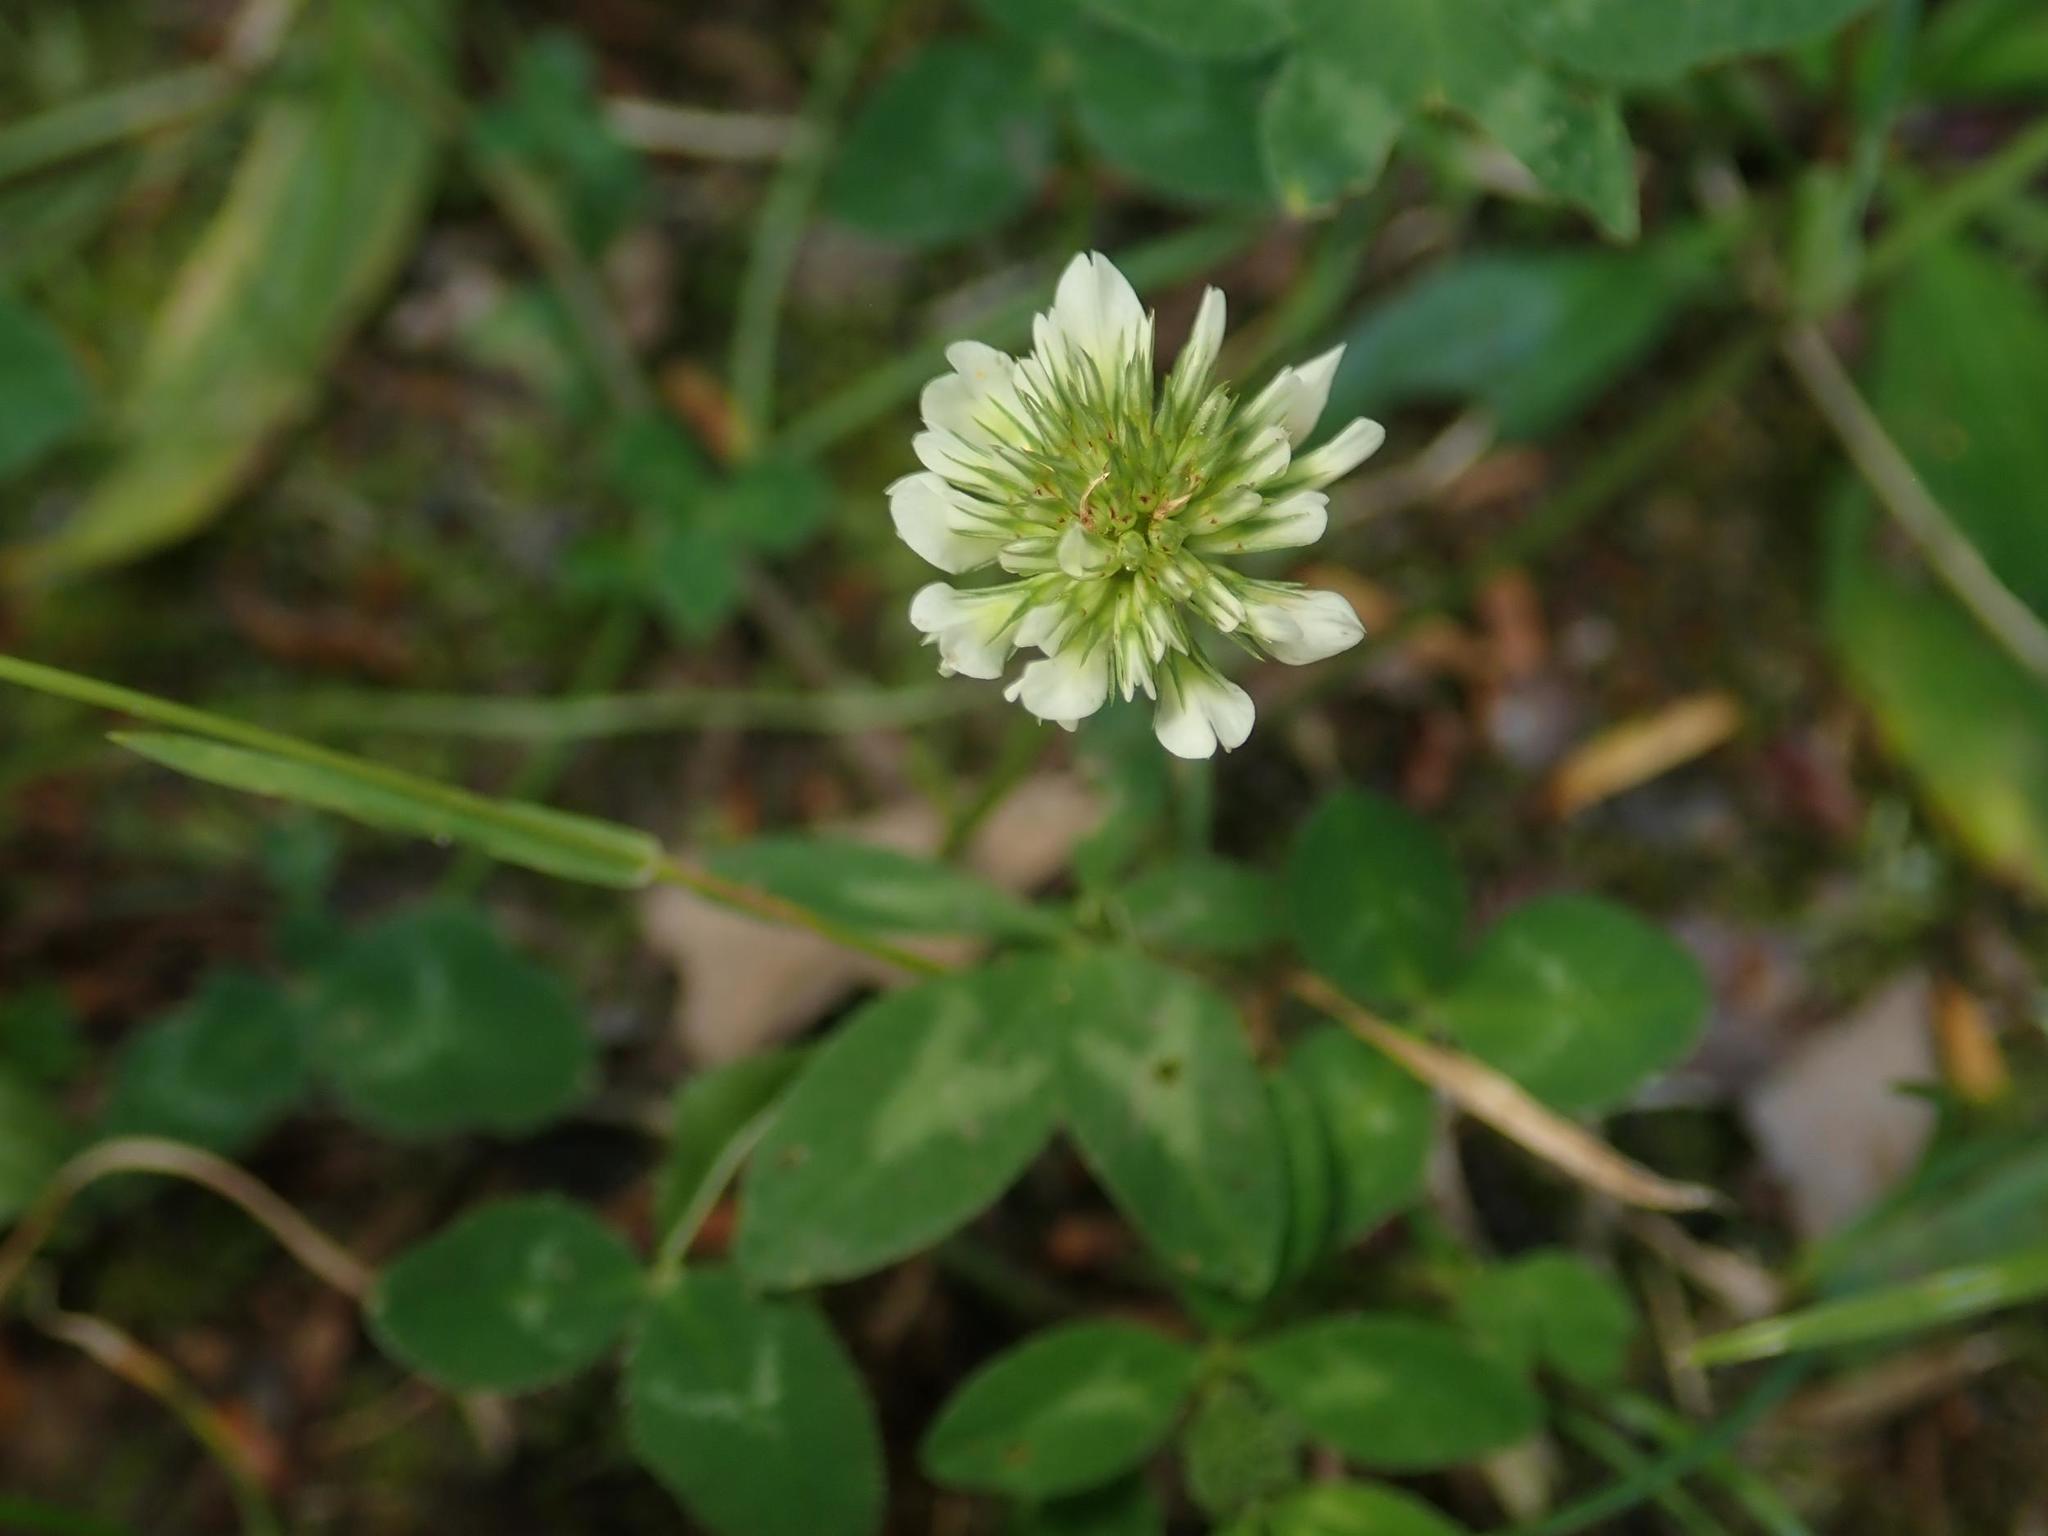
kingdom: Plantae
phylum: Tracheophyta
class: Magnoliopsida
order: Fabales
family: Fabaceae
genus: Trifolium
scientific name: Trifolium repens
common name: White clover
